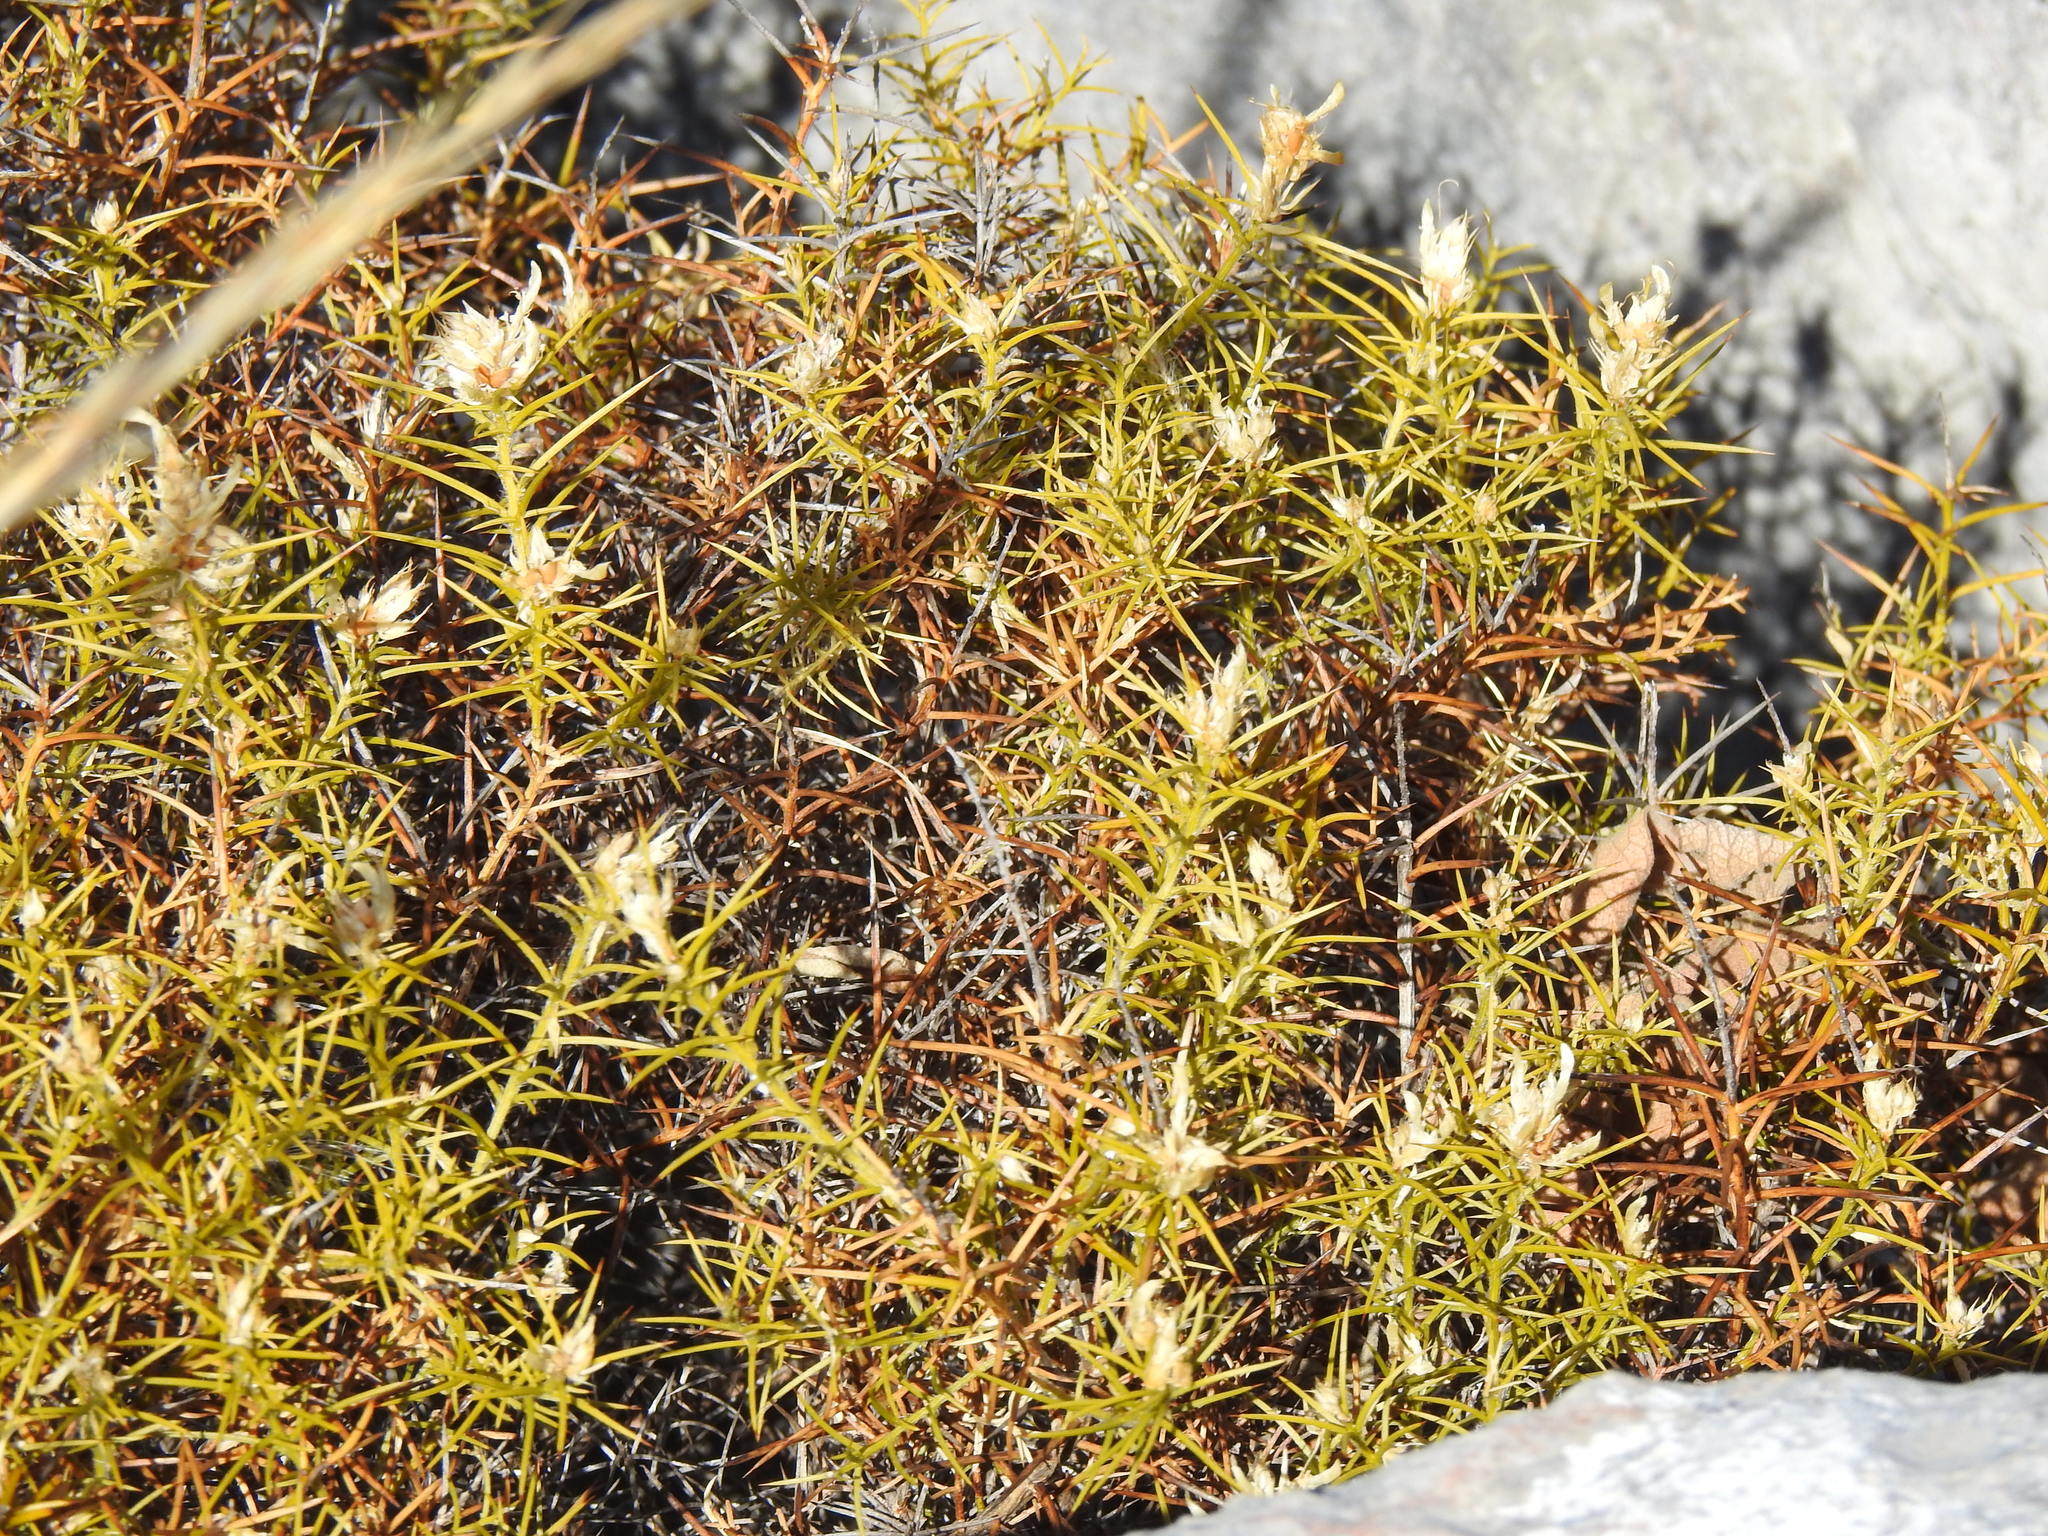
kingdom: Plantae
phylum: Tracheophyta
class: Magnoliopsida
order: Fabales
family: Fabaceae
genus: Genista
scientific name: Genista hirsuta
